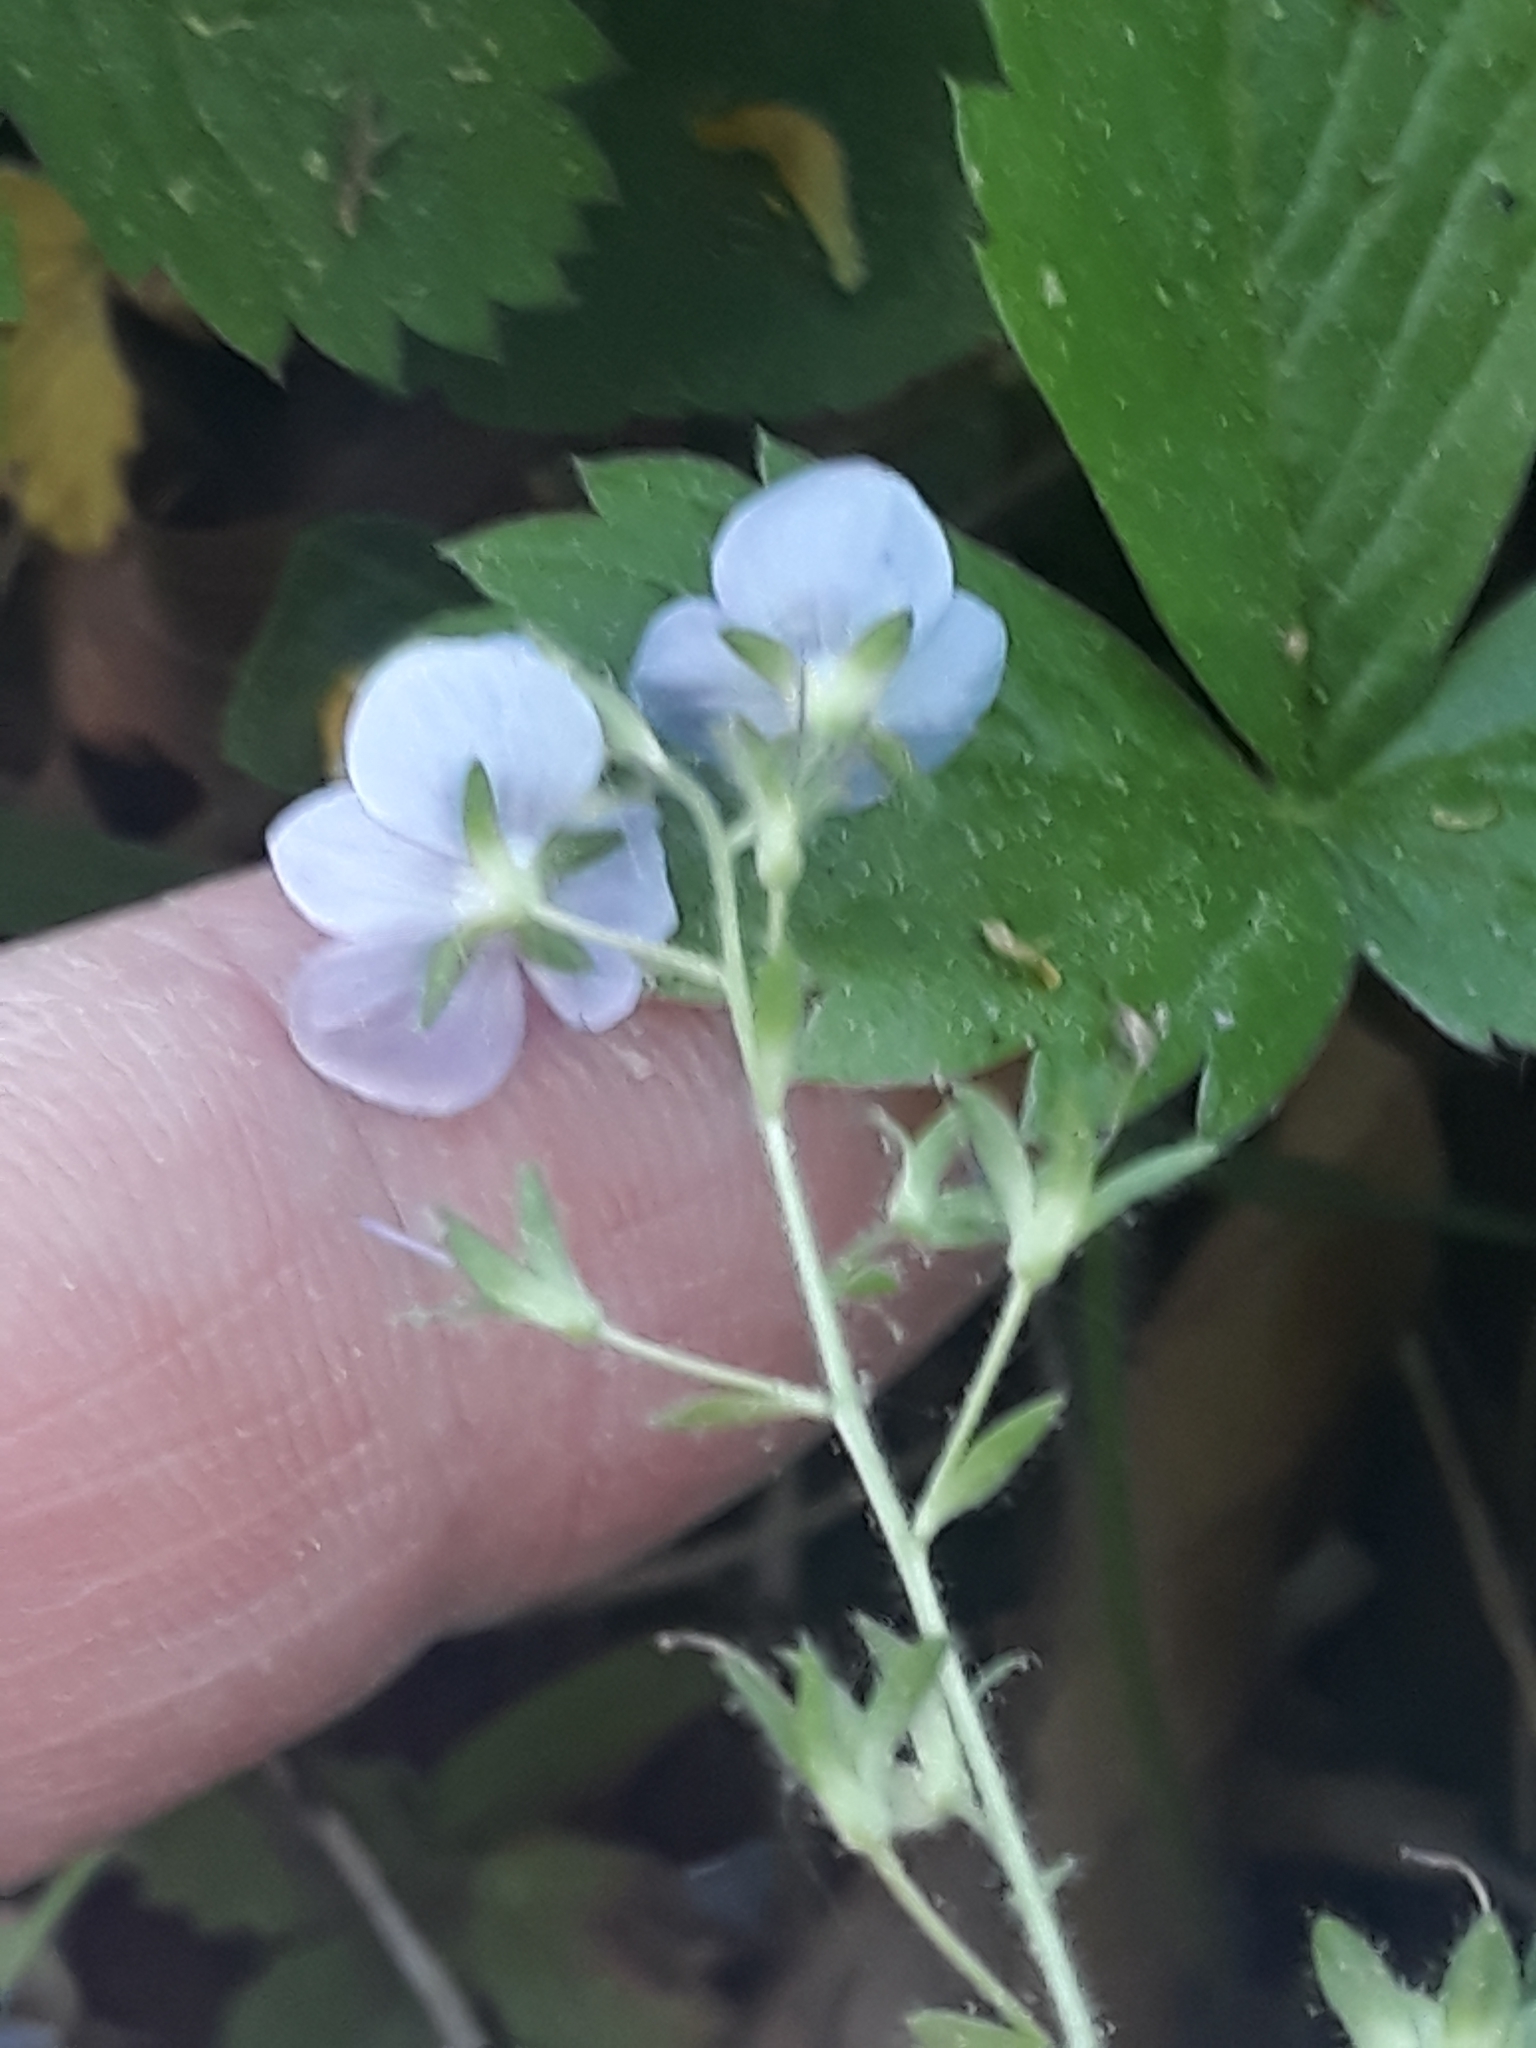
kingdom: Plantae
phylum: Tracheophyta
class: Magnoliopsida
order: Lamiales
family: Plantaginaceae
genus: Veronica
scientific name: Veronica chamaedrys
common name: Germander speedwell
